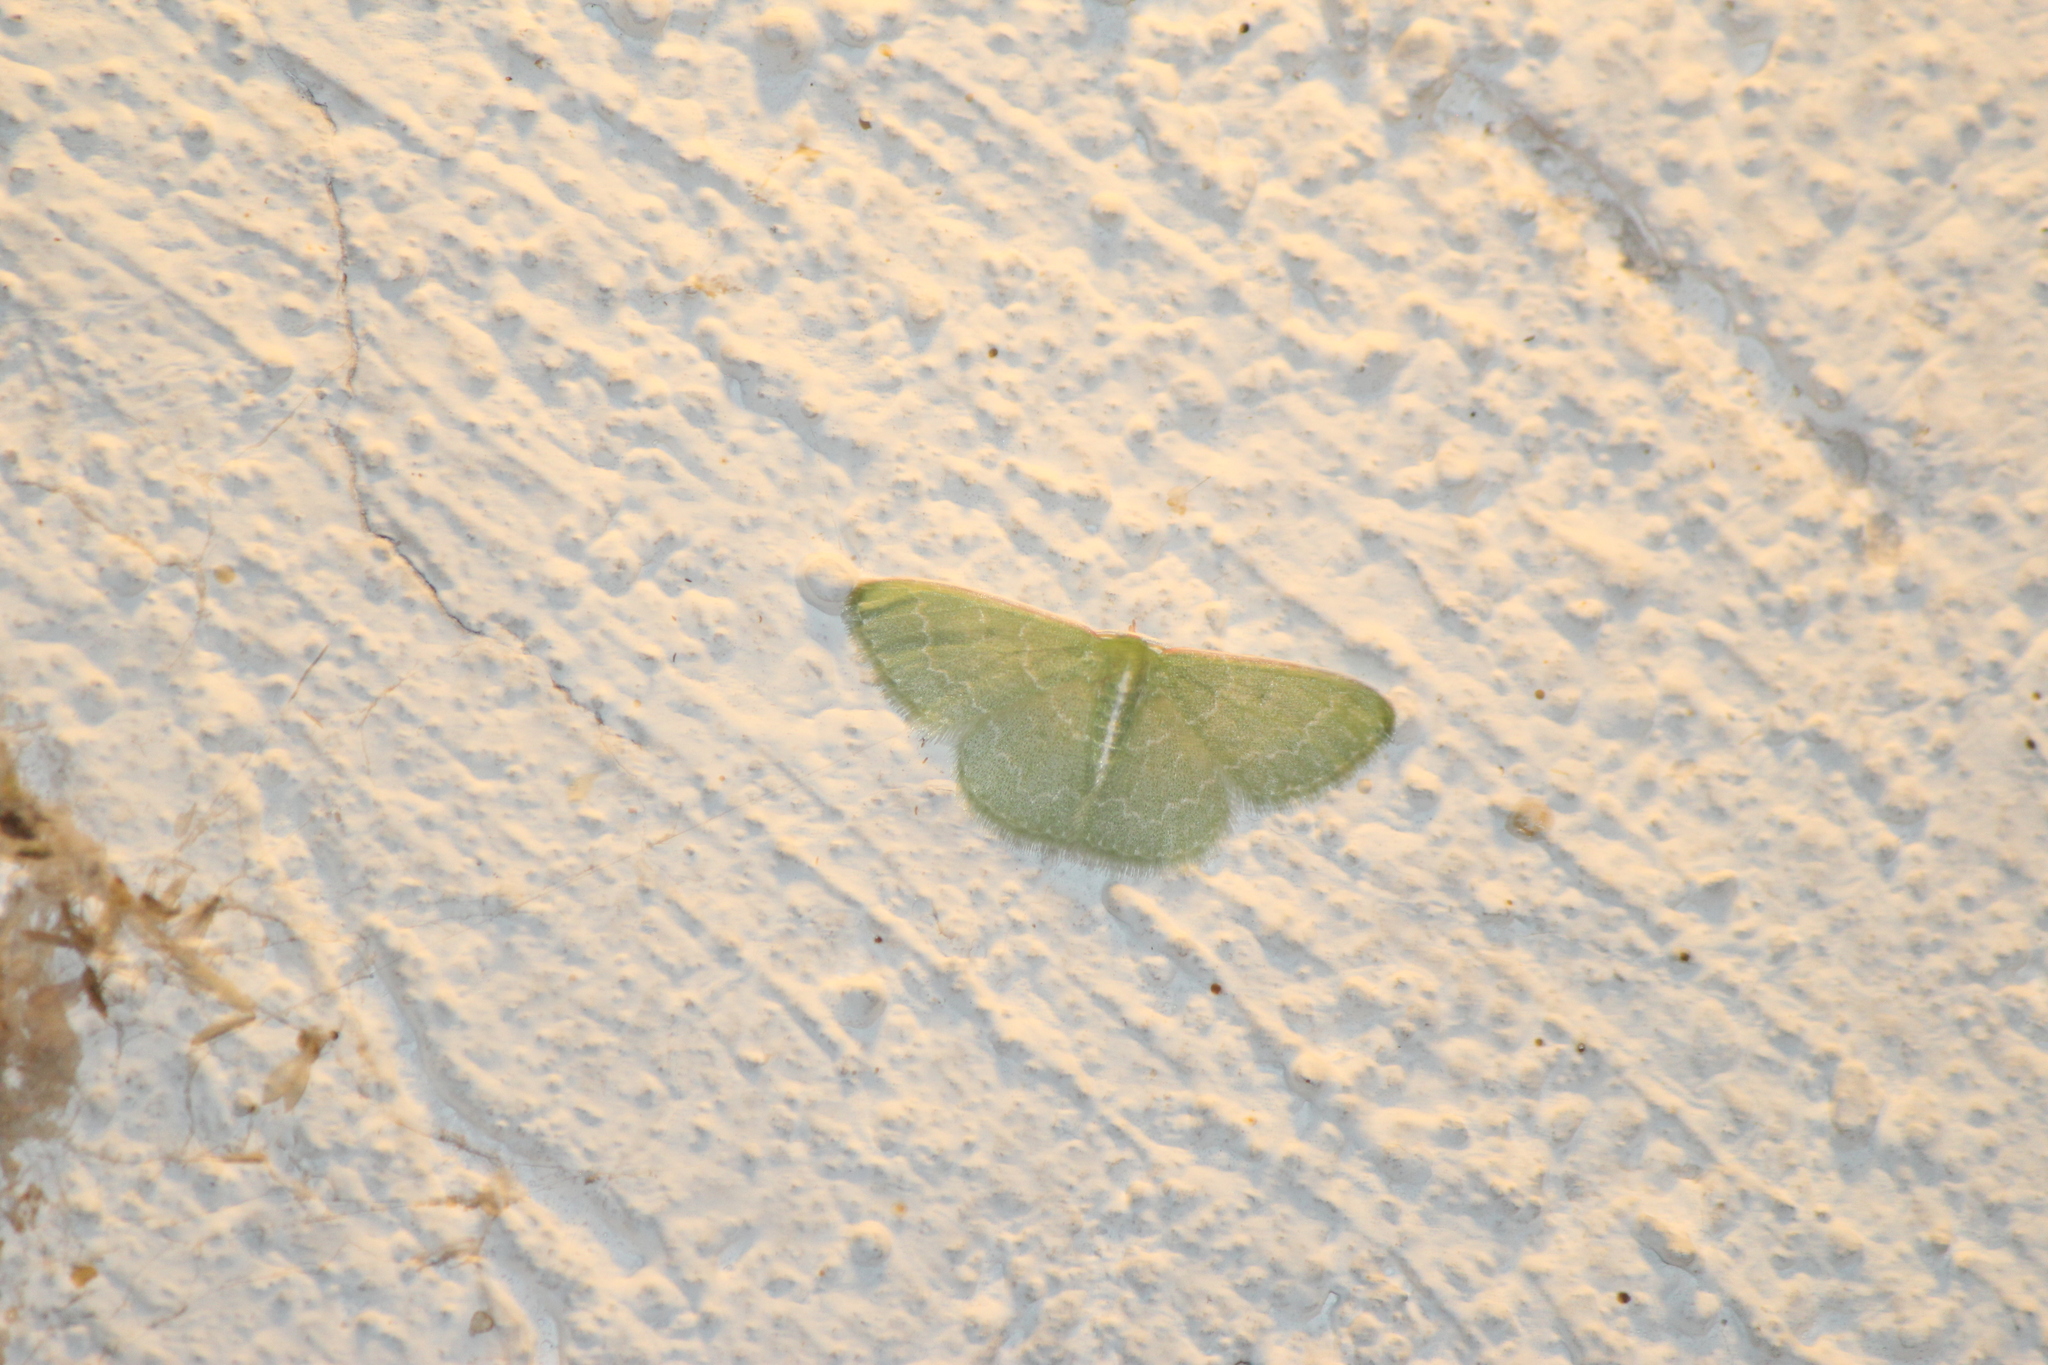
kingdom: Animalia
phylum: Arthropoda
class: Insecta
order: Lepidoptera
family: Geometridae
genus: Synchlora
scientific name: Synchlora frondaria
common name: Southern emerald
